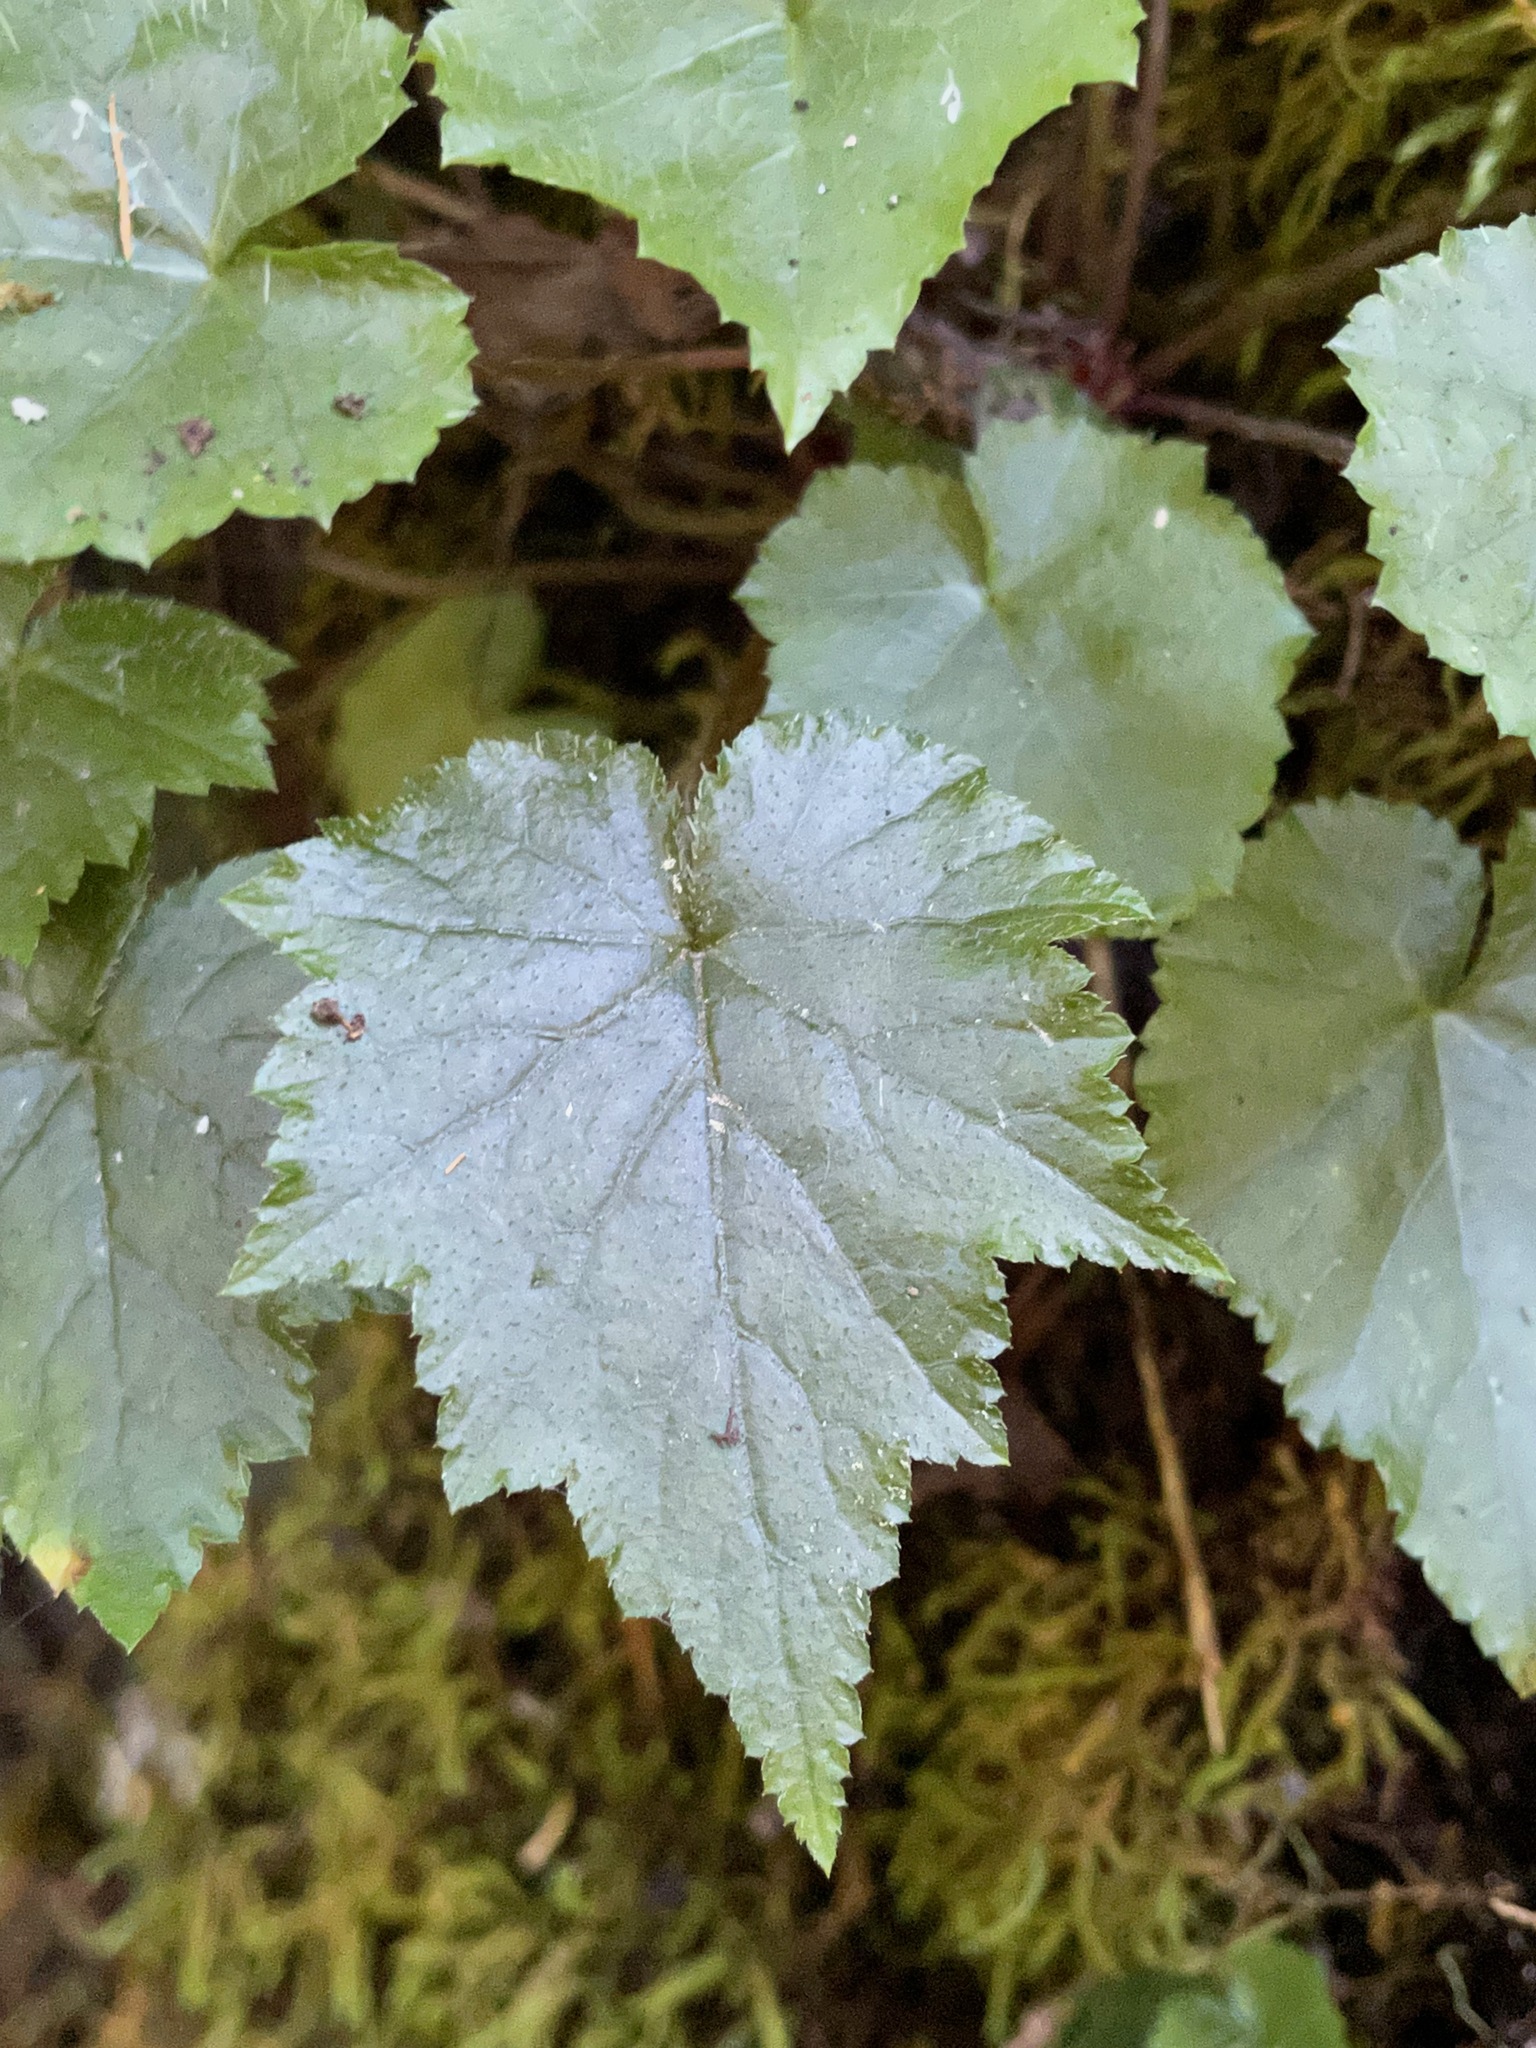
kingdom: Plantae
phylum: Tracheophyta
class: Magnoliopsida
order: Saxifragales
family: Saxifragaceae
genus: Mitella
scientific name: Mitella diphylla
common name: Coolwort
